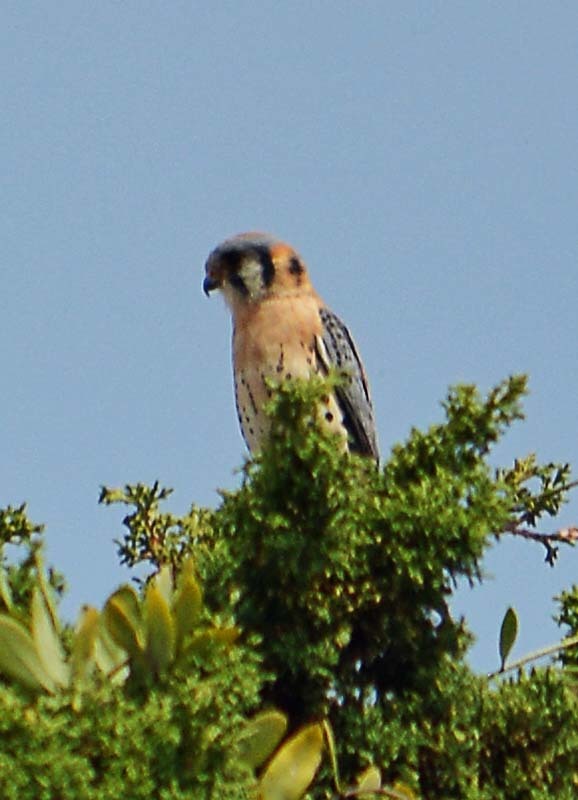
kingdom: Animalia
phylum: Chordata
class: Aves
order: Falconiformes
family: Falconidae
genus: Falco
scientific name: Falco sparverius
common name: American kestrel
